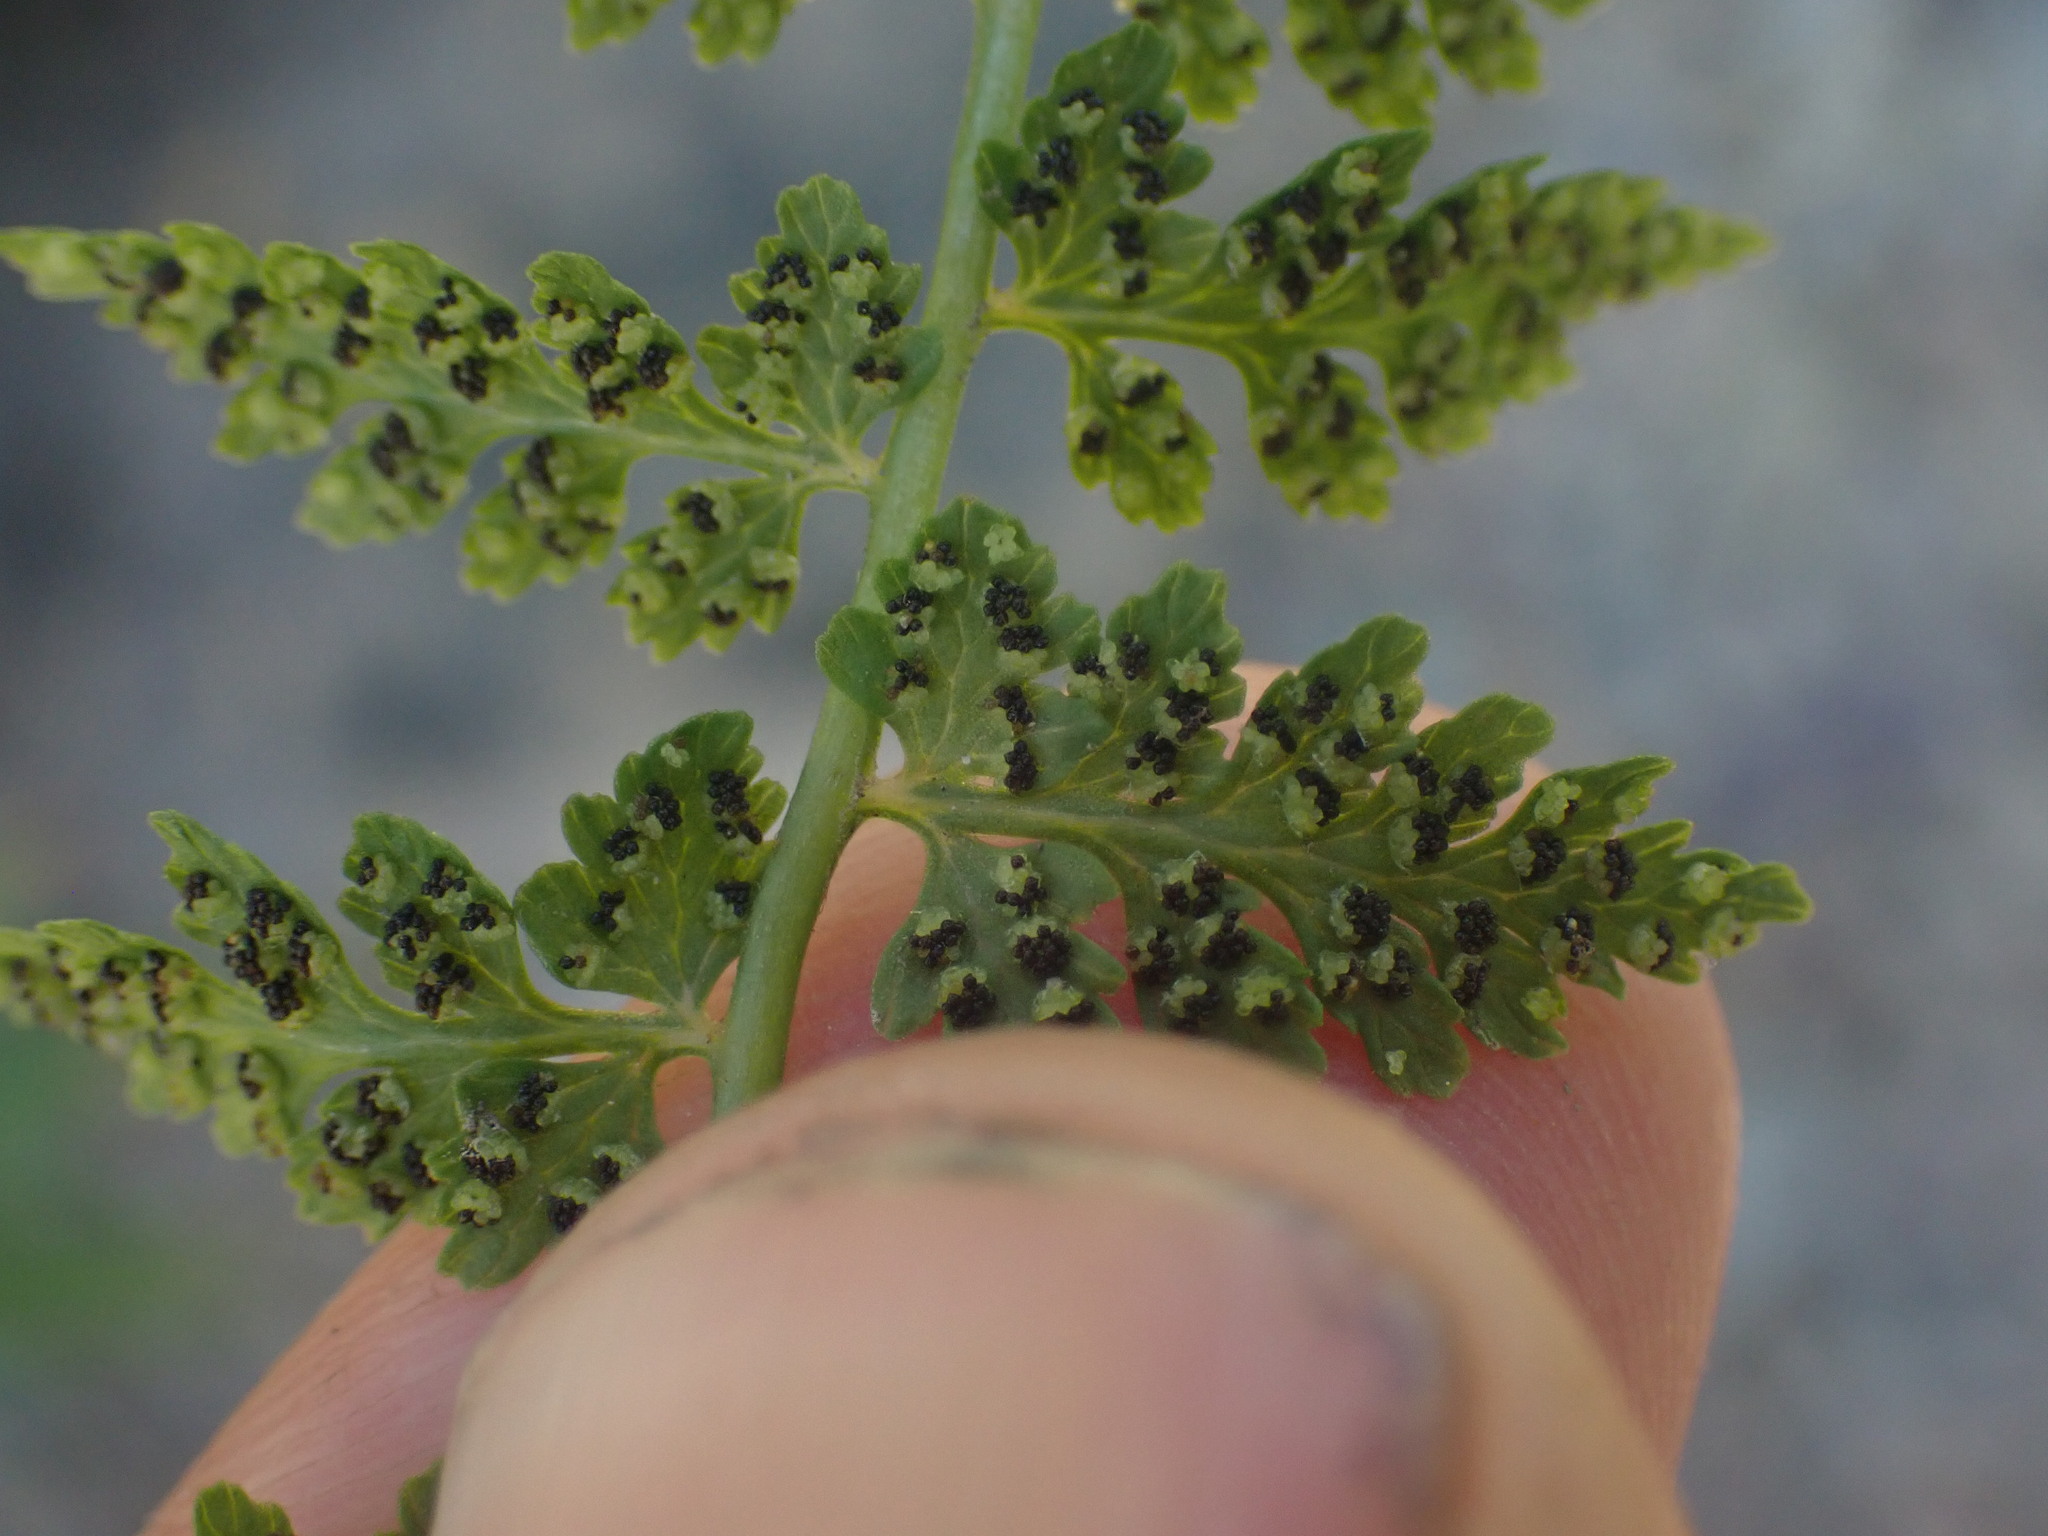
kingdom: Plantae
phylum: Tracheophyta
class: Polypodiopsida
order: Polypodiales
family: Cystopteridaceae
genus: Cystopteris
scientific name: Cystopteris fragilis
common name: Brittle bladder fern
